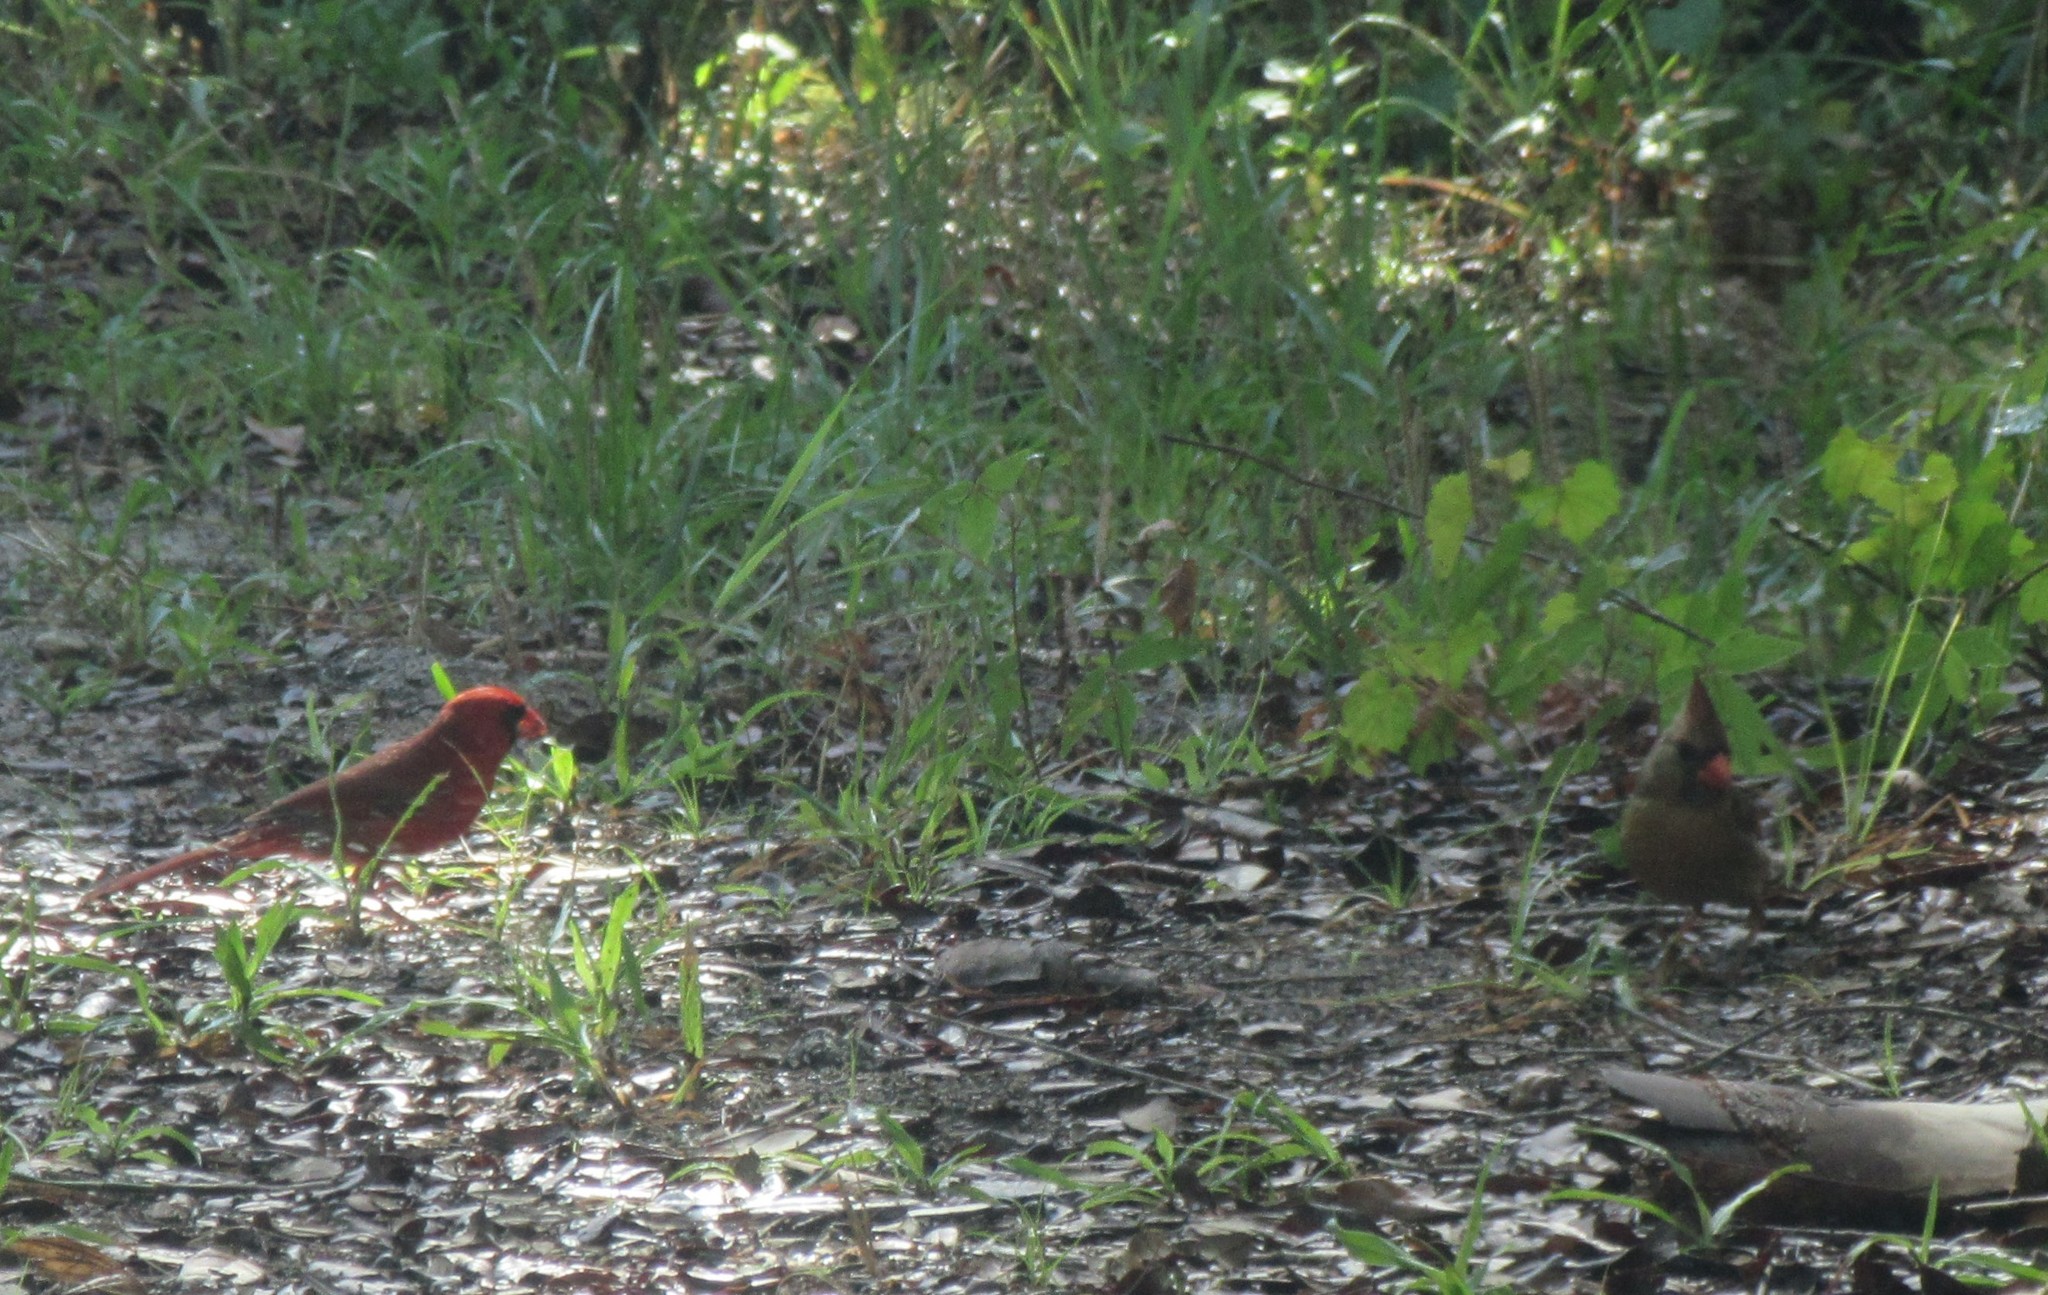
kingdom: Animalia
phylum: Chordata
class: Aves
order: Passeriformes
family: Cardinalidae
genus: Cardinalis
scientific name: Cardinalis cardinalis
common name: Northern cardinal
